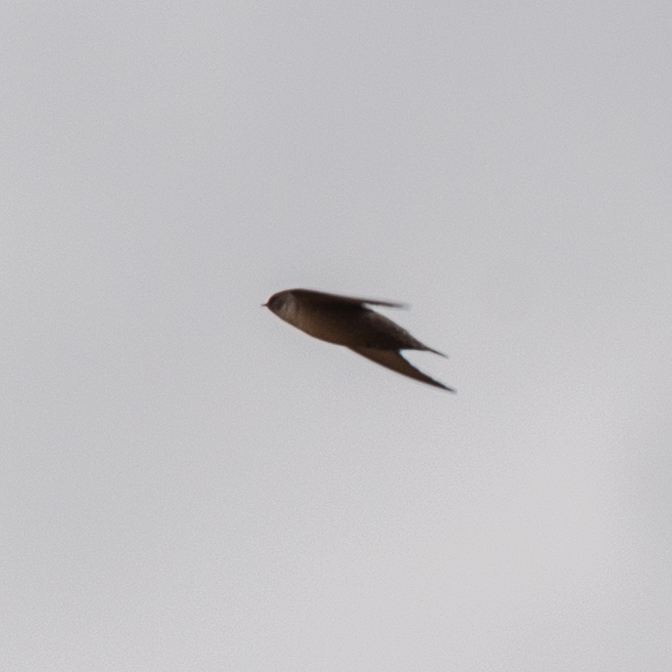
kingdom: Animalia
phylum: Chordata
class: Aves
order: Passeriformes
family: Hirundinidae
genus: Ptyonoprogne
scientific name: Ptyonoprogne rupestris
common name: Eurasian crag martin
